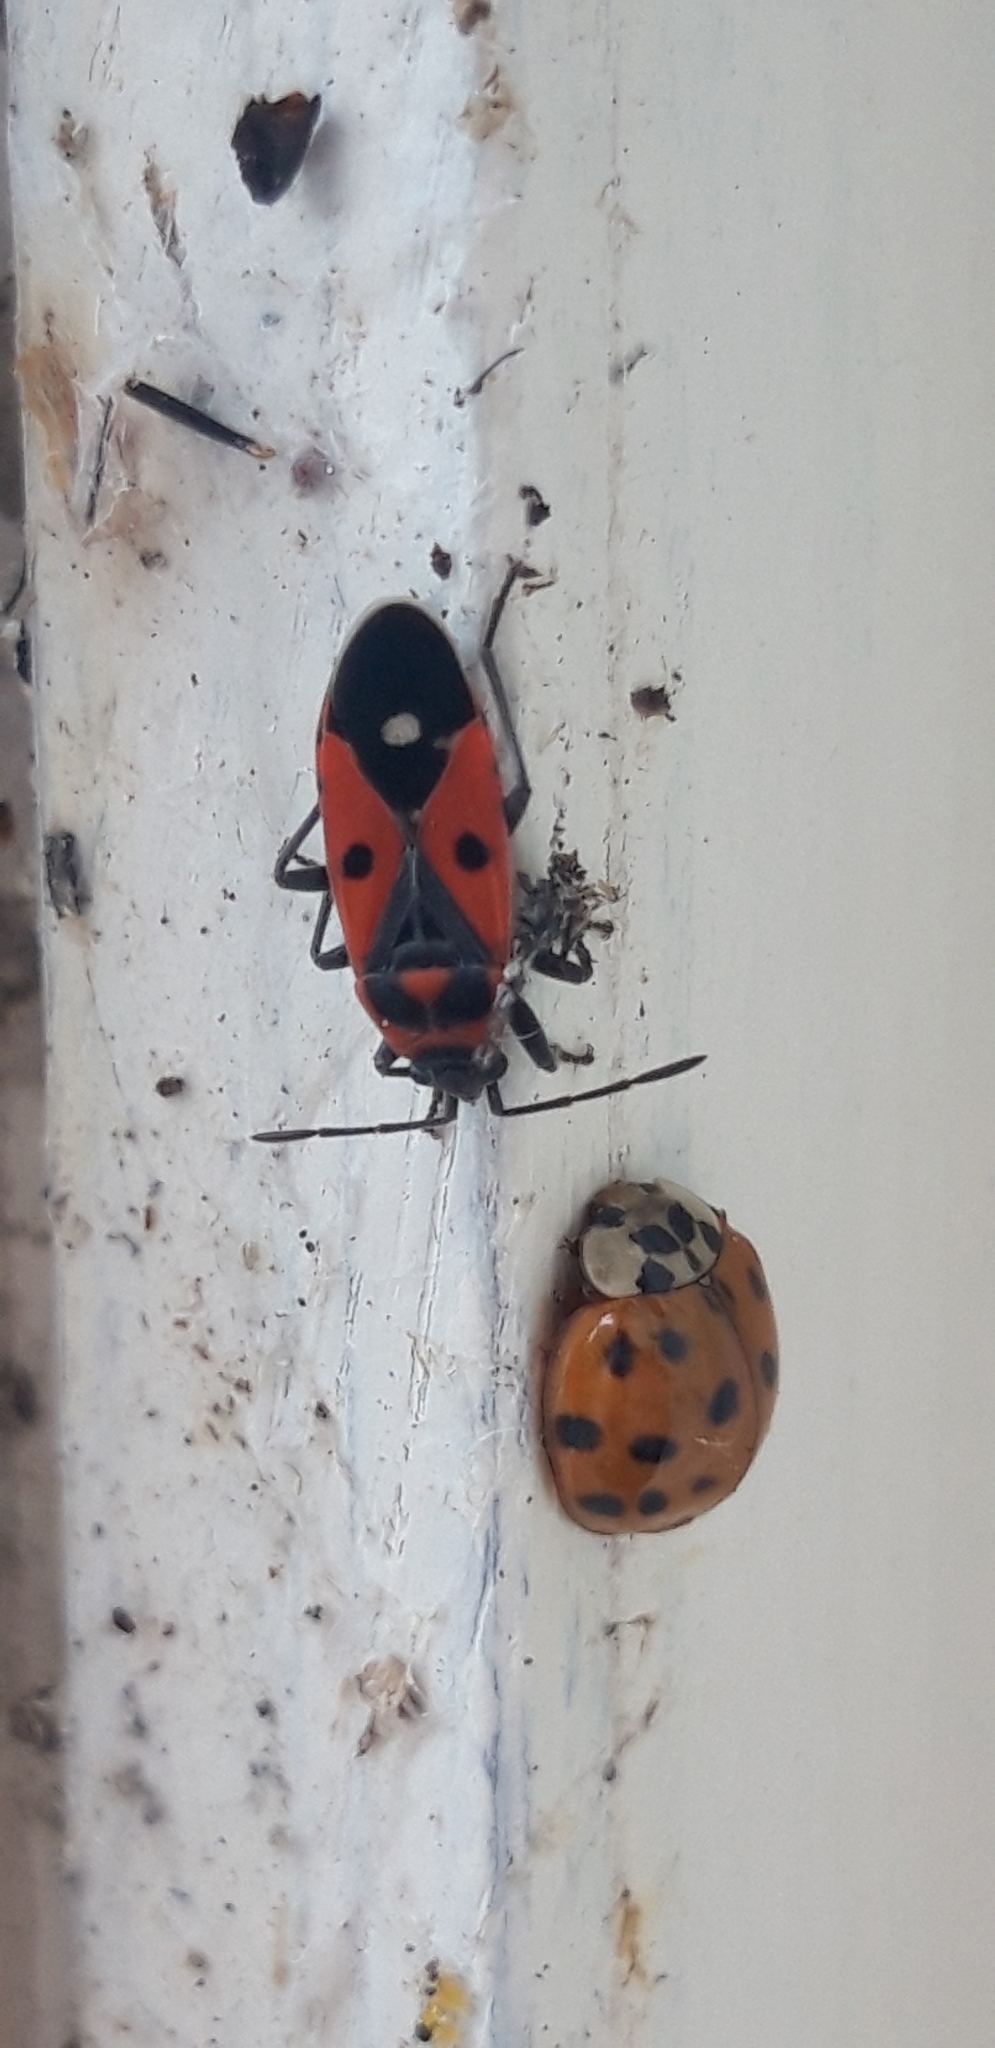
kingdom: Animalia
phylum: Arthropoda
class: Insecta
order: Hemiptera
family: Lygaeidae
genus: Melanocoryphus
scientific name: Melanocoryphus albomaculatus
